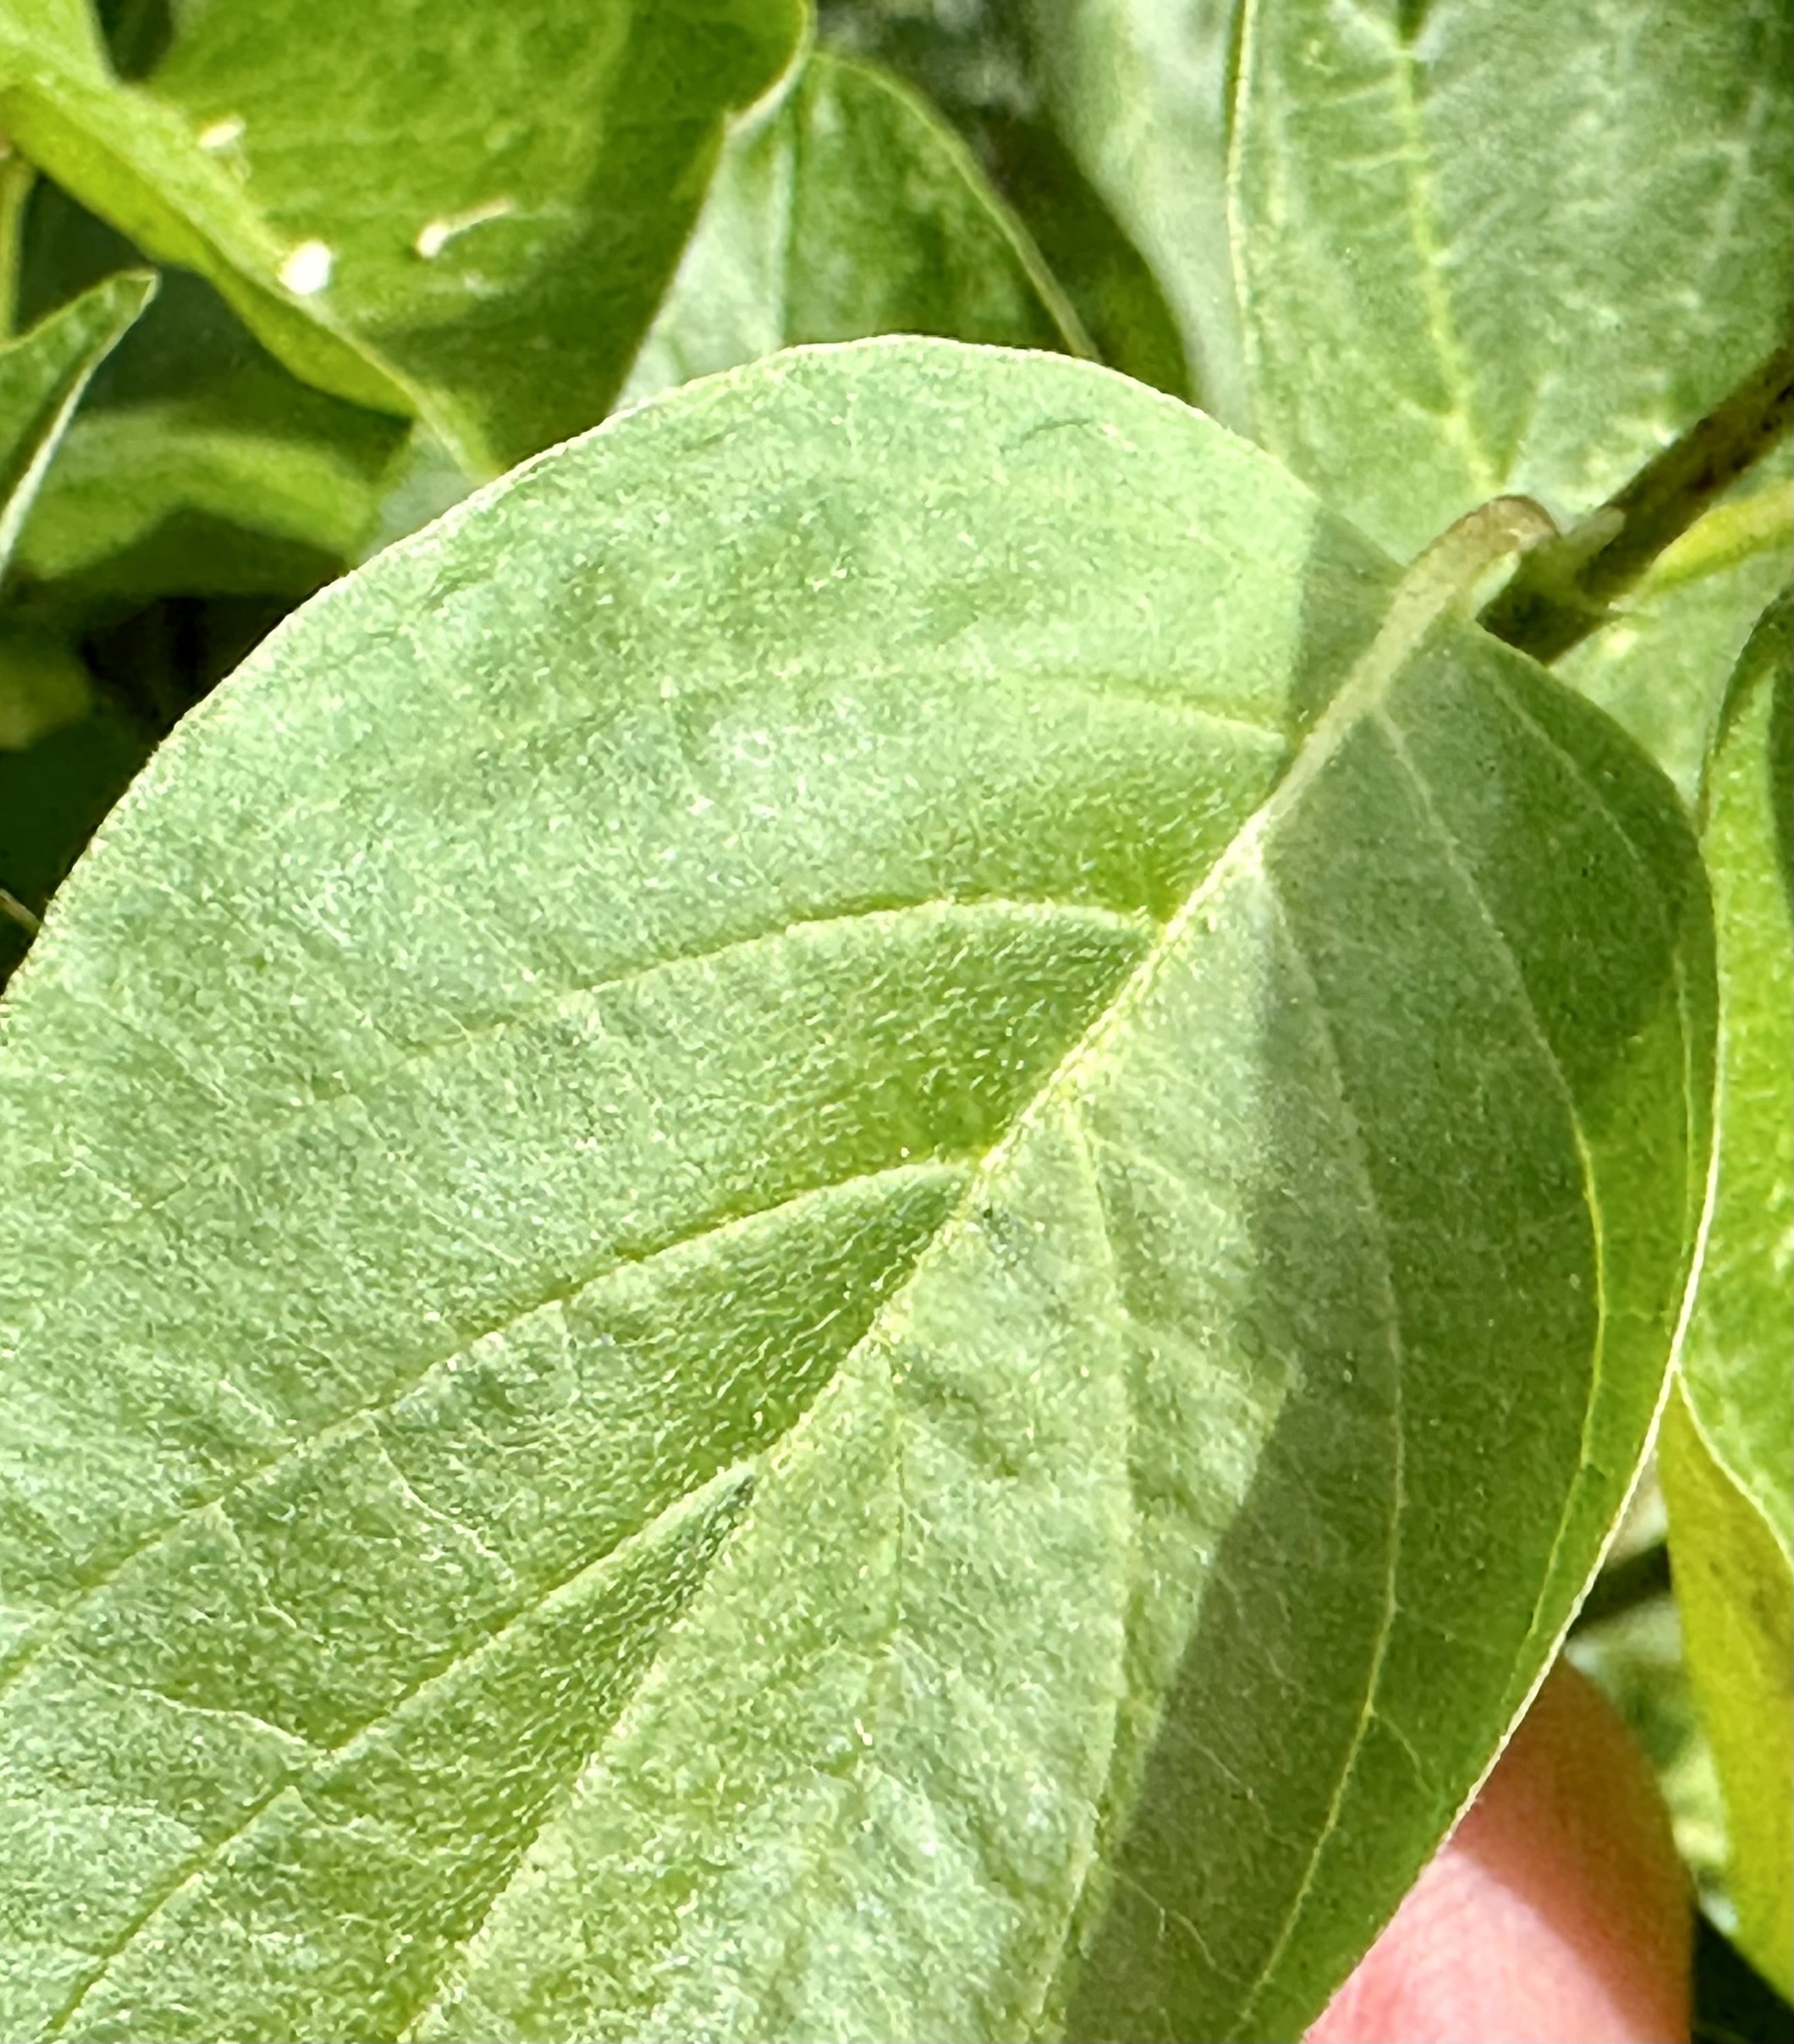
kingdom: Plantae
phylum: Tracheophyta
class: Magnoliopsida
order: Cornales
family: Cornaceae
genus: Cornus
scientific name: Cornus sericea
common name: Red-osier dogwood
